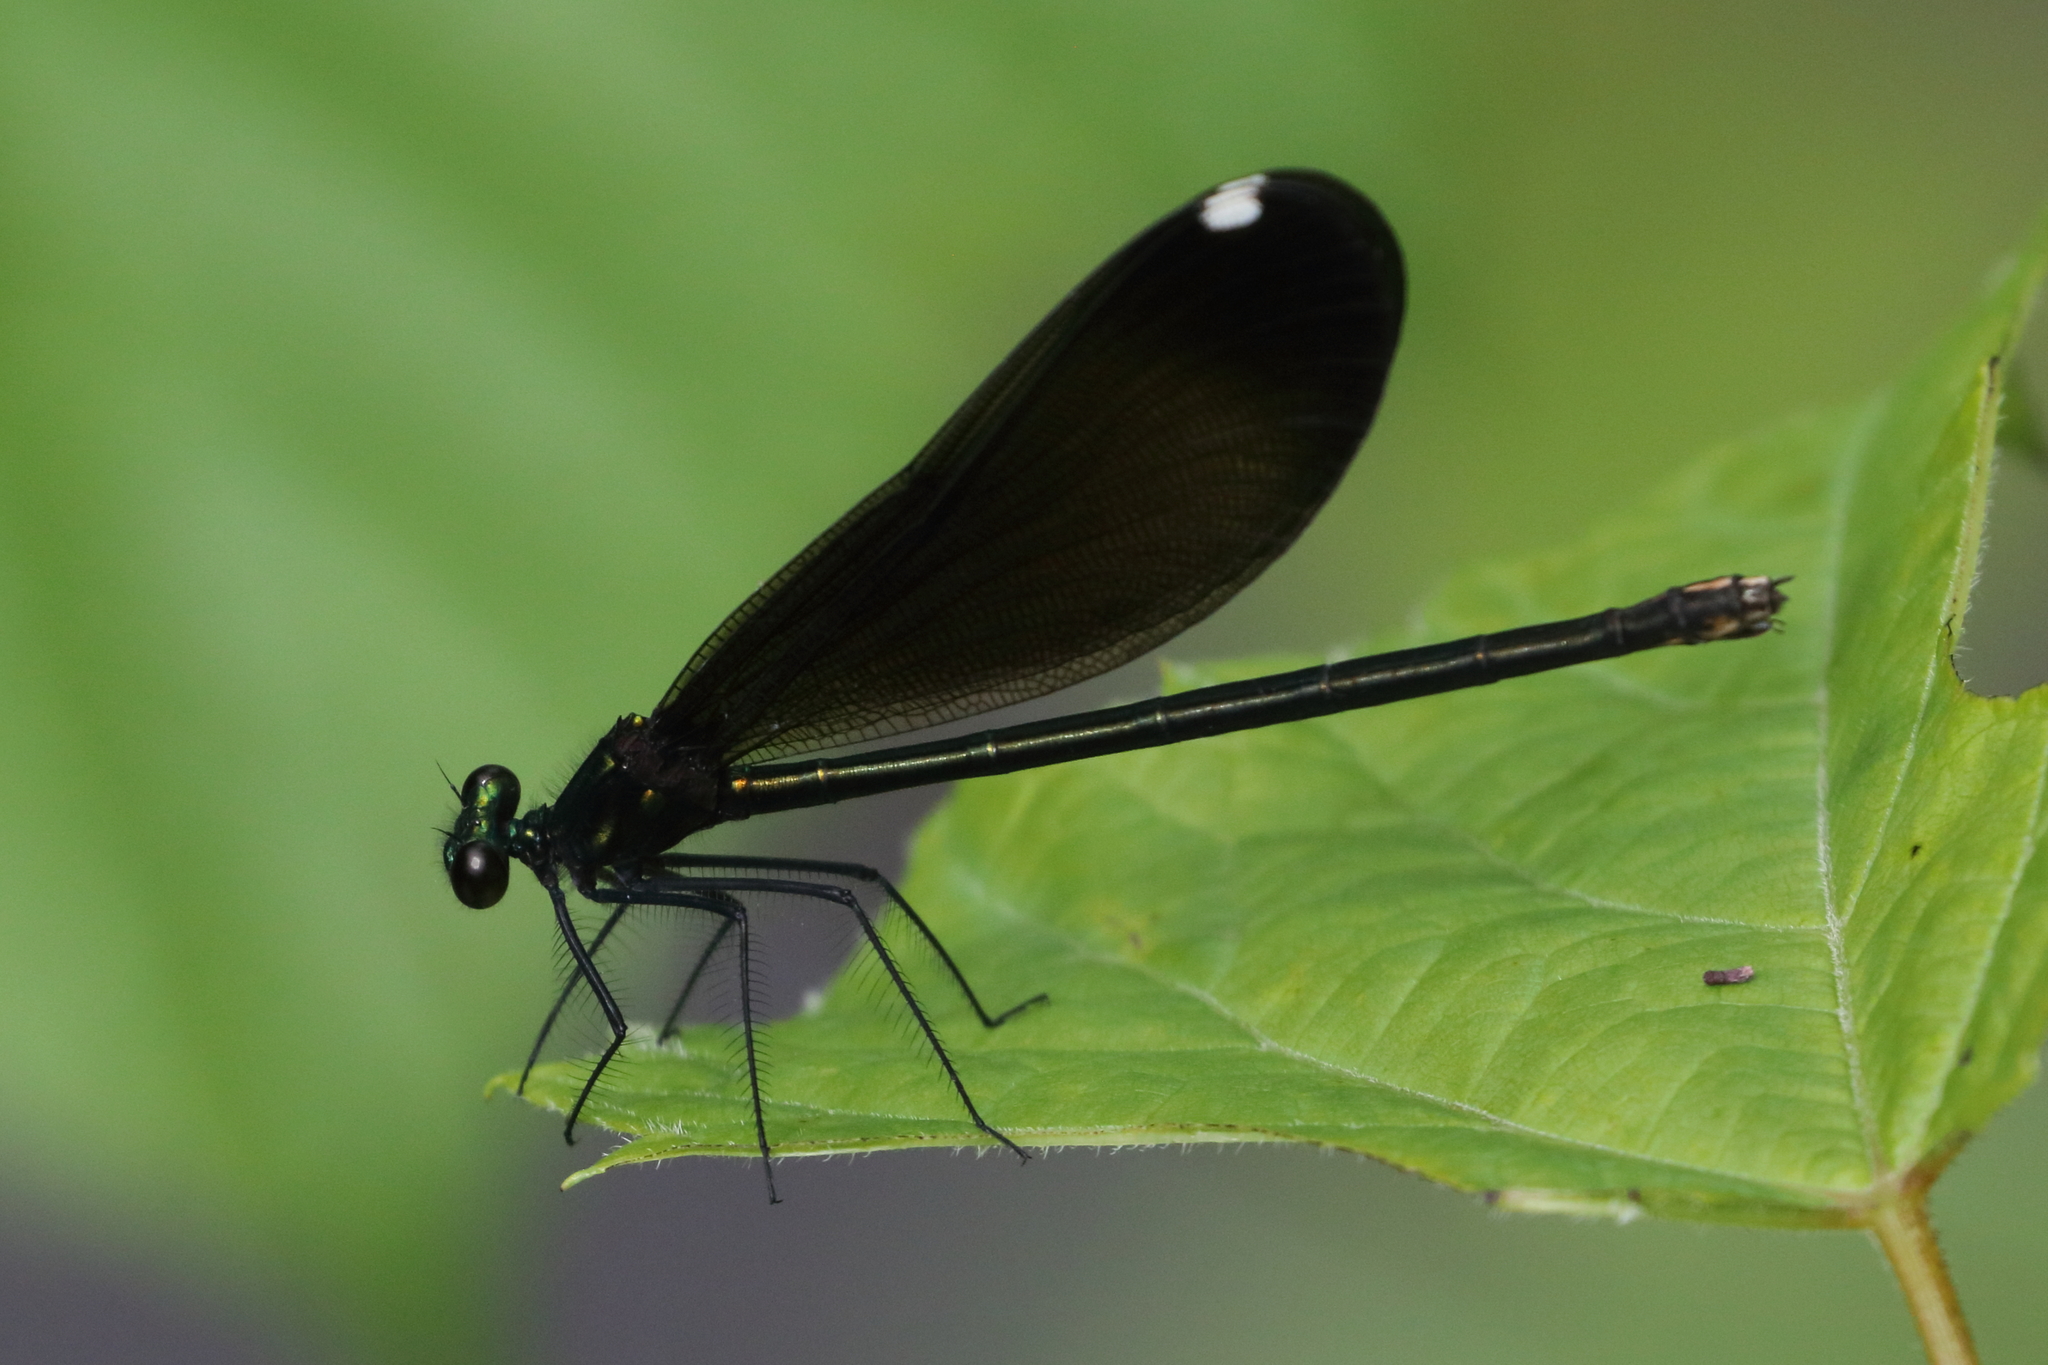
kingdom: Animalia
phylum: Arthropoda
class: Insecta
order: Odonata
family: Calopterygidae
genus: Calopteryx
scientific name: Calopteryx maculata
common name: Ebony jewelwing
